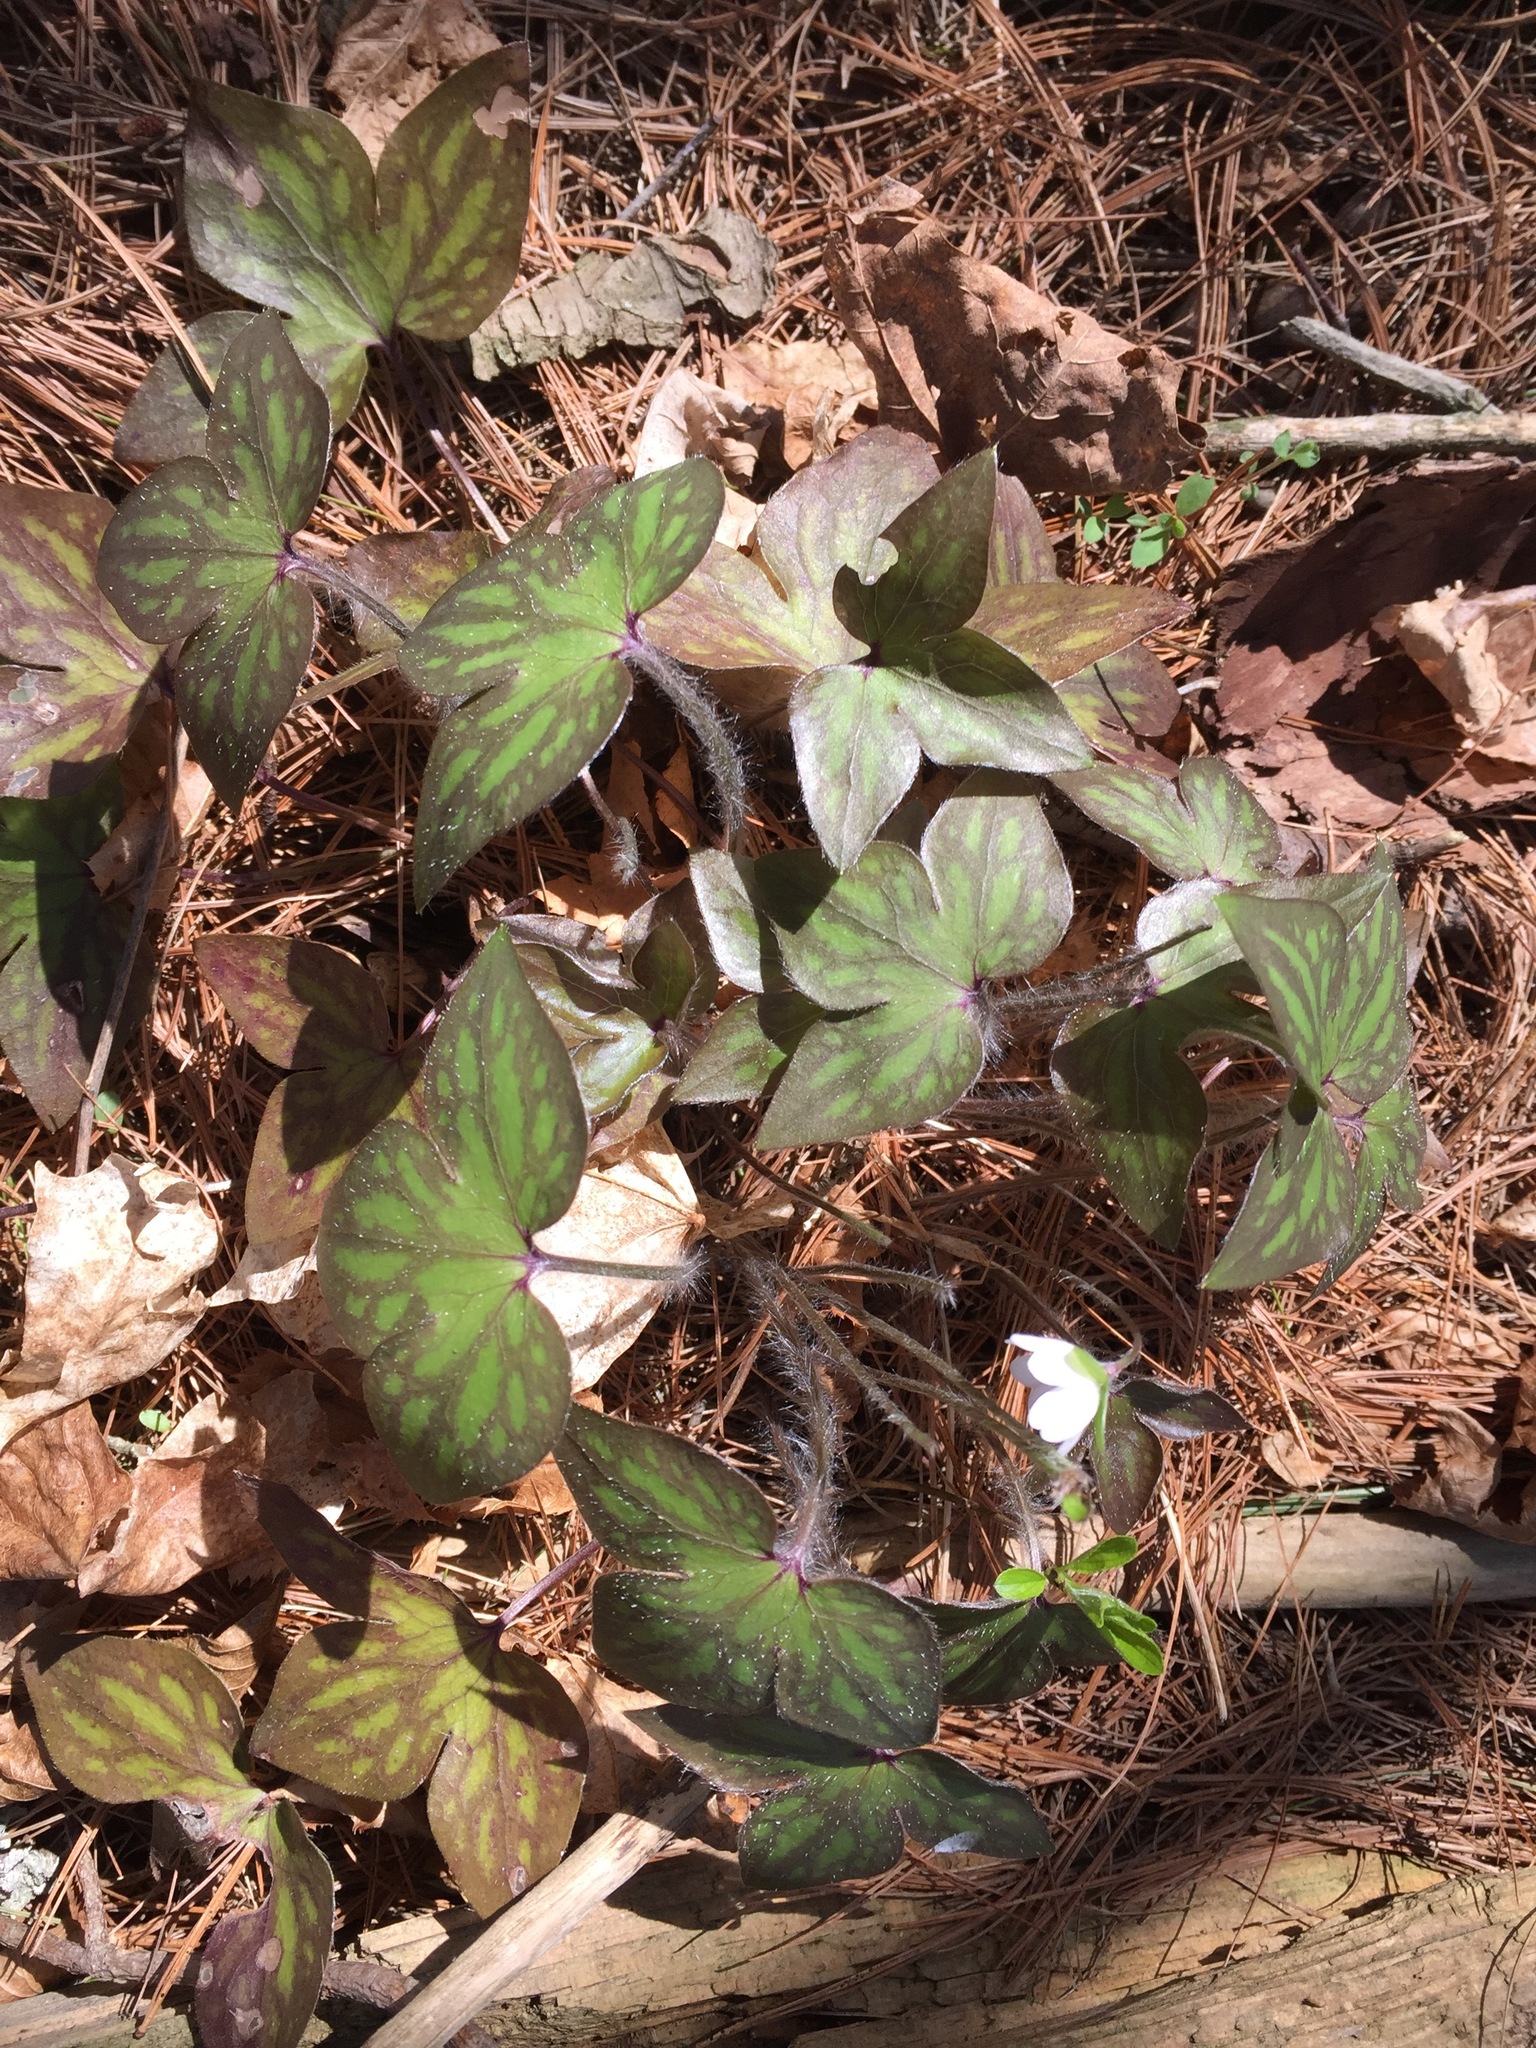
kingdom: Plantae
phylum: Tracheophyta
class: Magnoliopsida
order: Ranunculales
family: Ranunculaceae
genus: Hepatica
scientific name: Hepatica acutiloba
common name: Sharp-lobed hepatica
